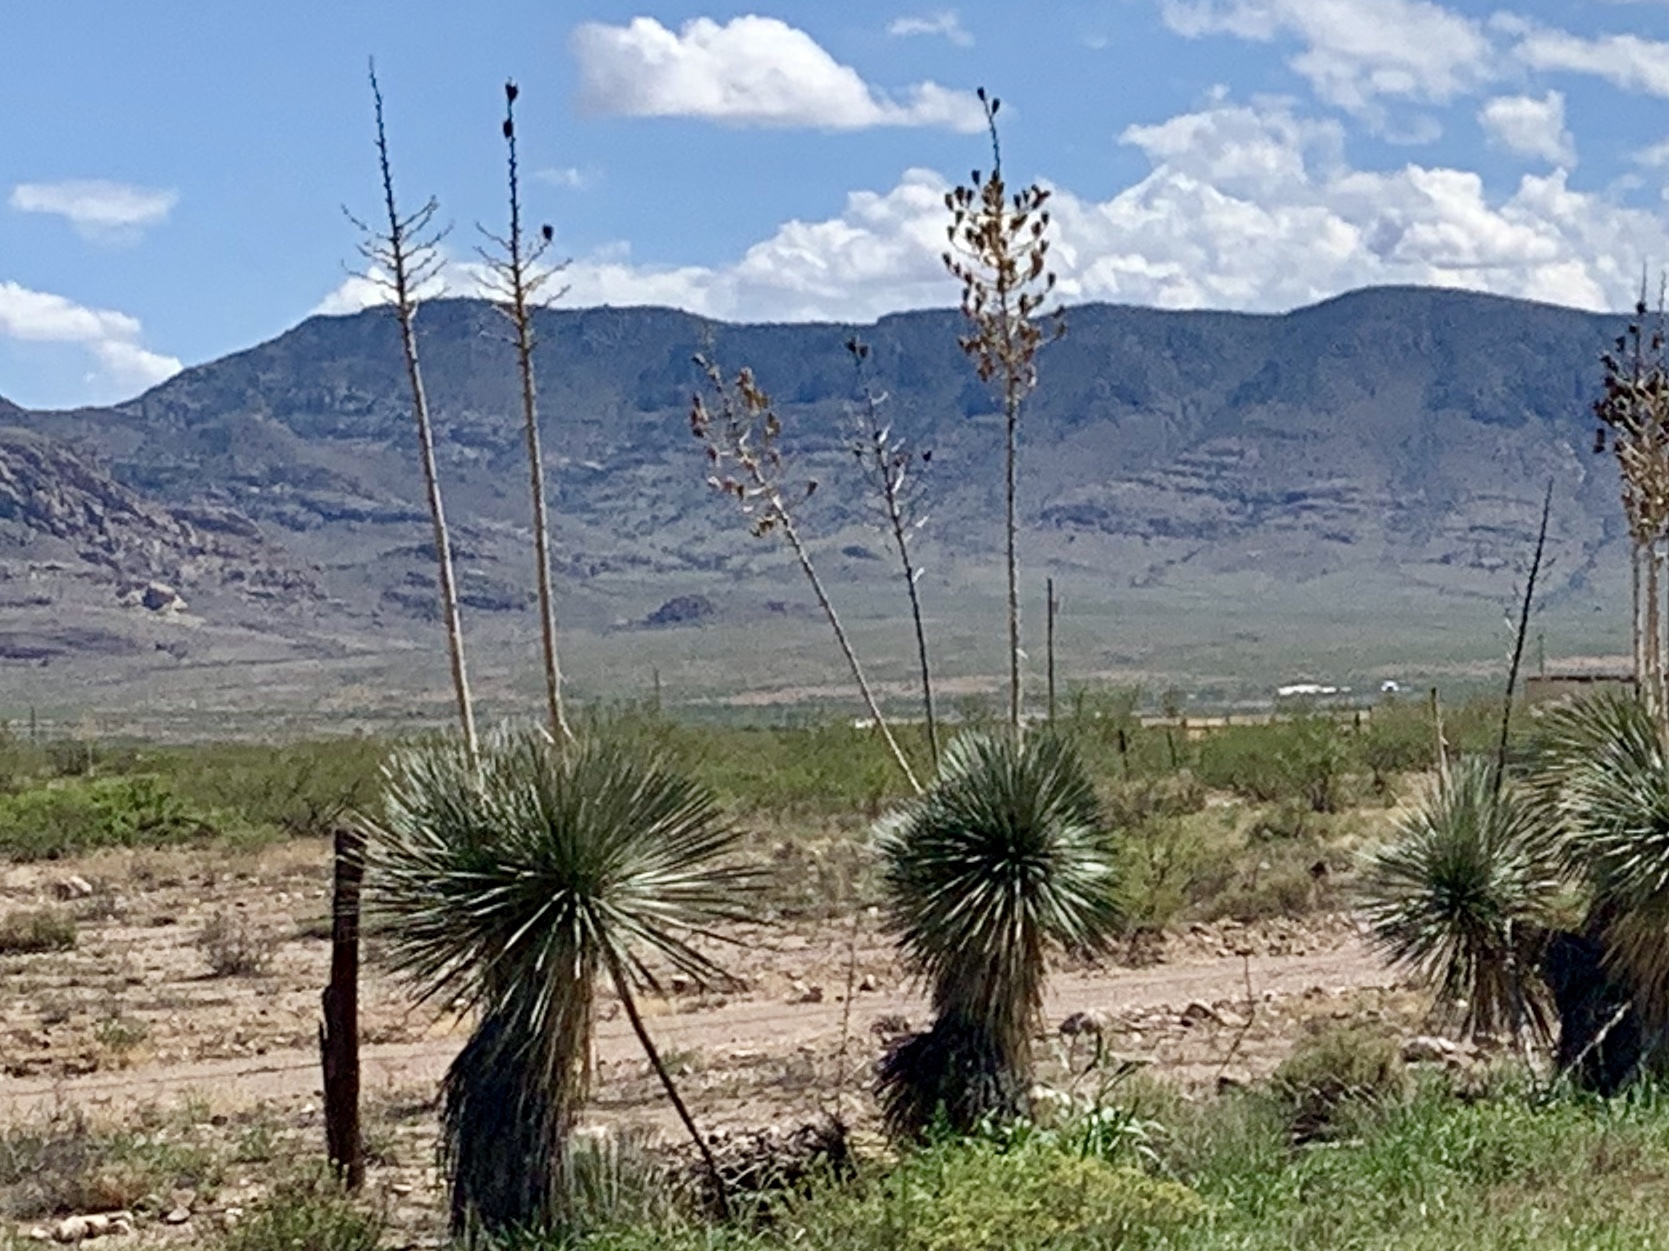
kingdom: Plantae
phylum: Tracheophyta
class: Liliopsida
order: Asparagales
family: Asparagaceae
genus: Yucca
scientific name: Yucca elata
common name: Palmella
